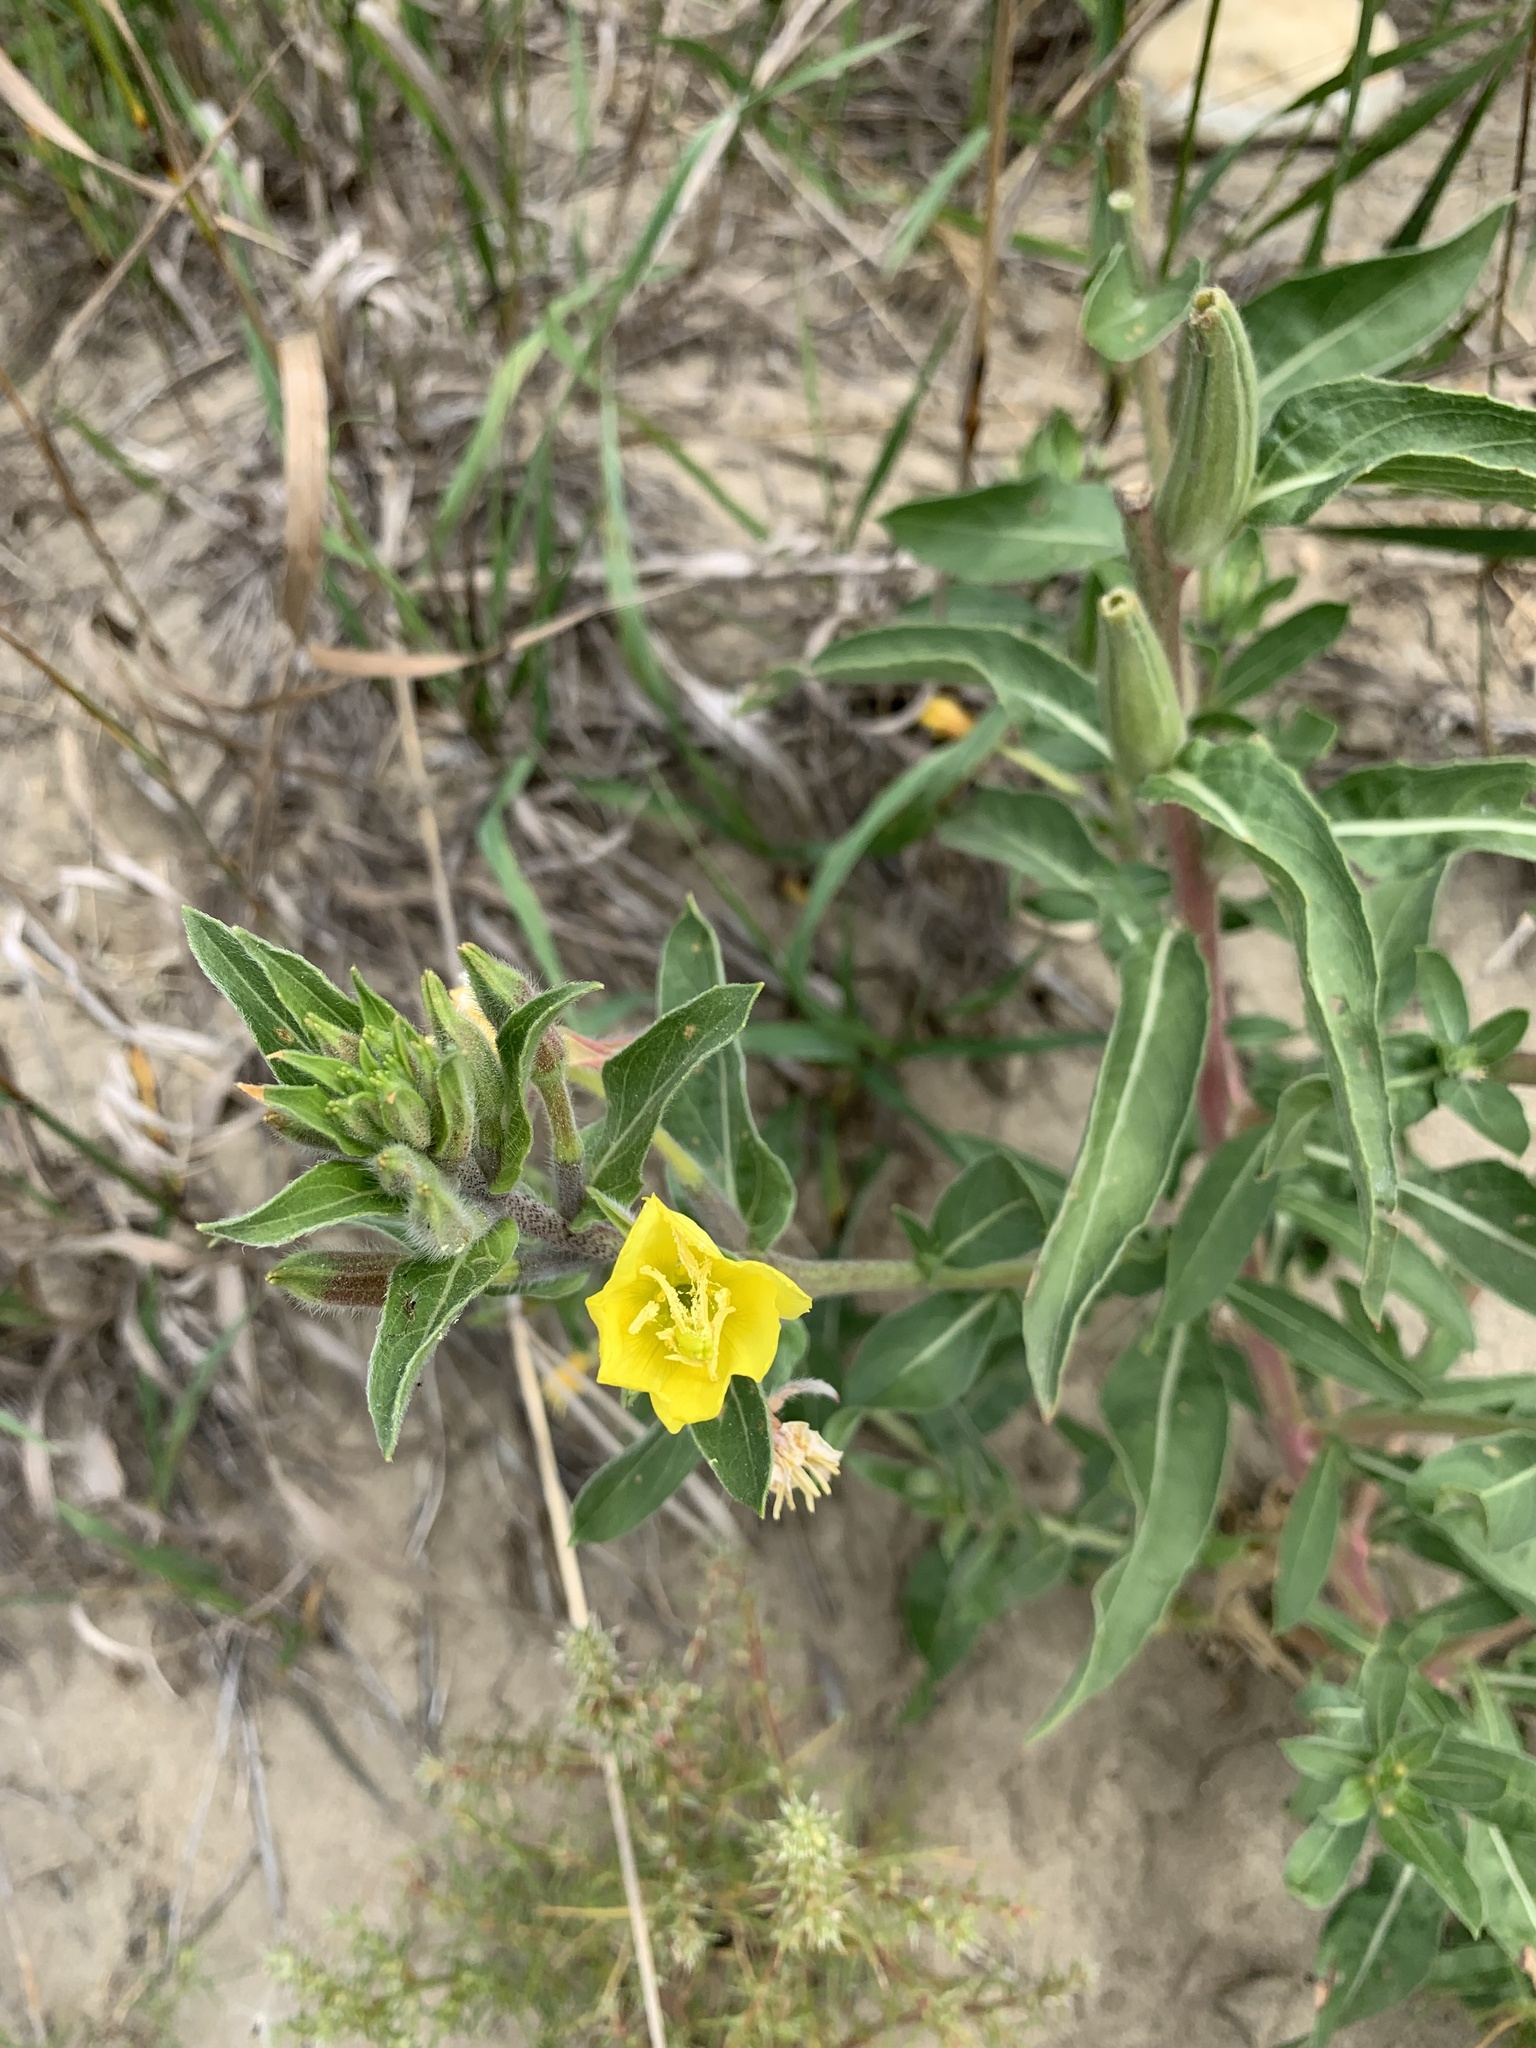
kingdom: Plantae
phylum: Tracheophyta
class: Magnoliopsida
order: Myrtales
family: Onagraceae
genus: Oenothera
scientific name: Oenothera biennis
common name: Common evening-primrose
